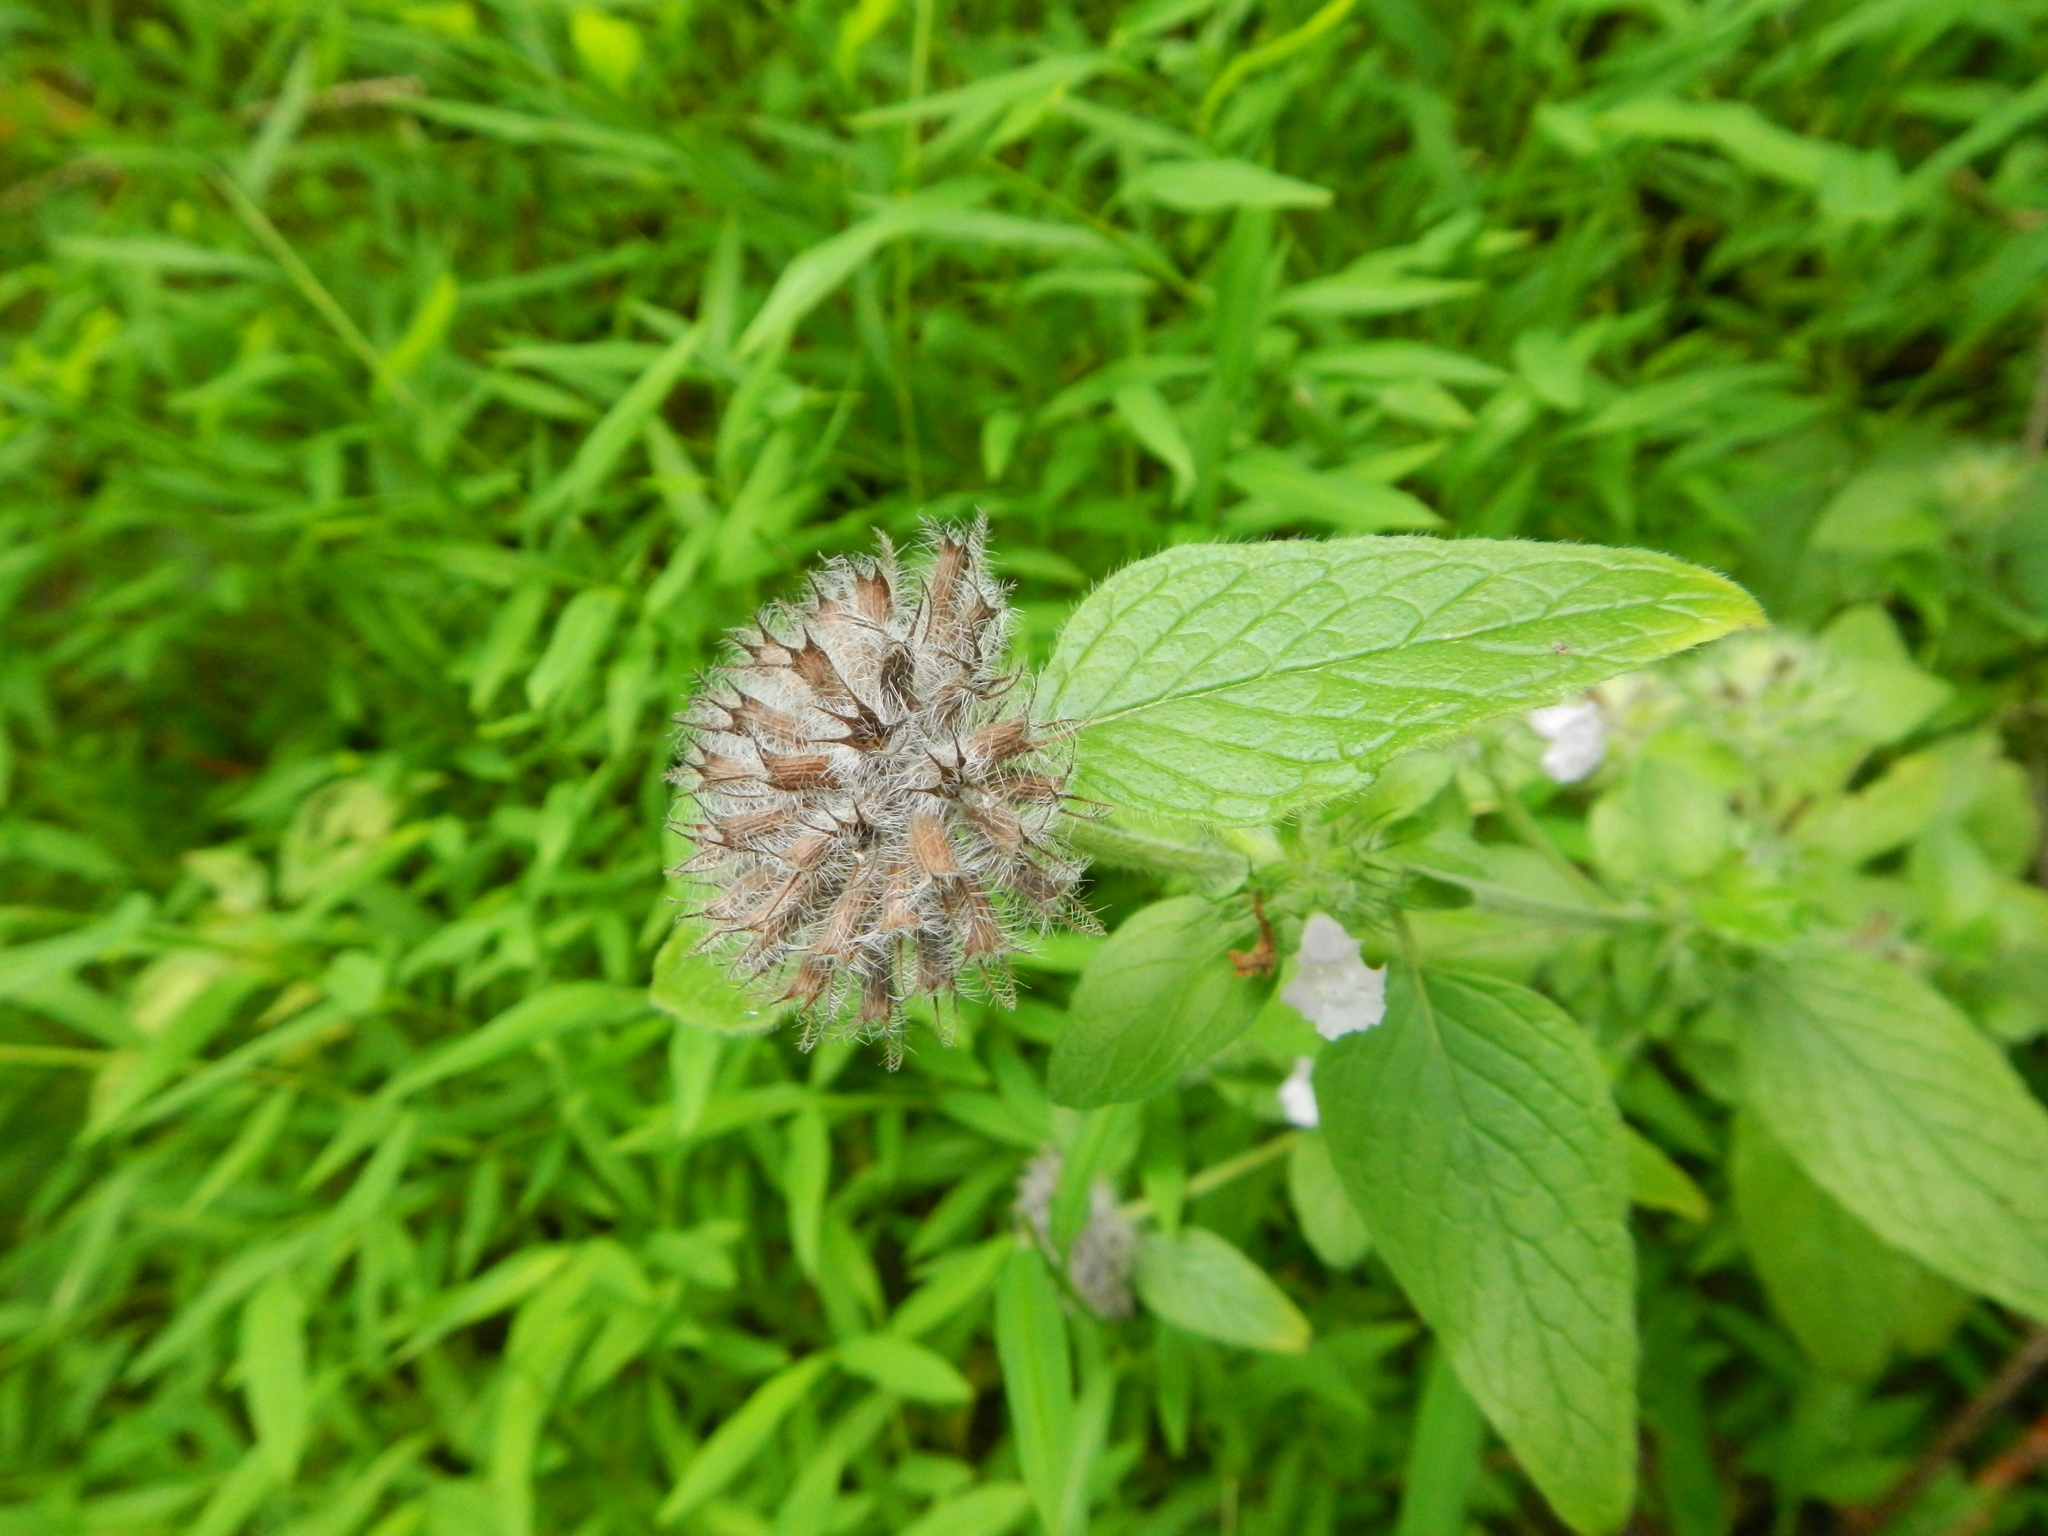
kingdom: Plantae
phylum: Tracheophyta
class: Magnoliopsida
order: Lamiales
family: Lamiaceae
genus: Clinopodium
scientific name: Clinopodium vulgare
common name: Wild basil
